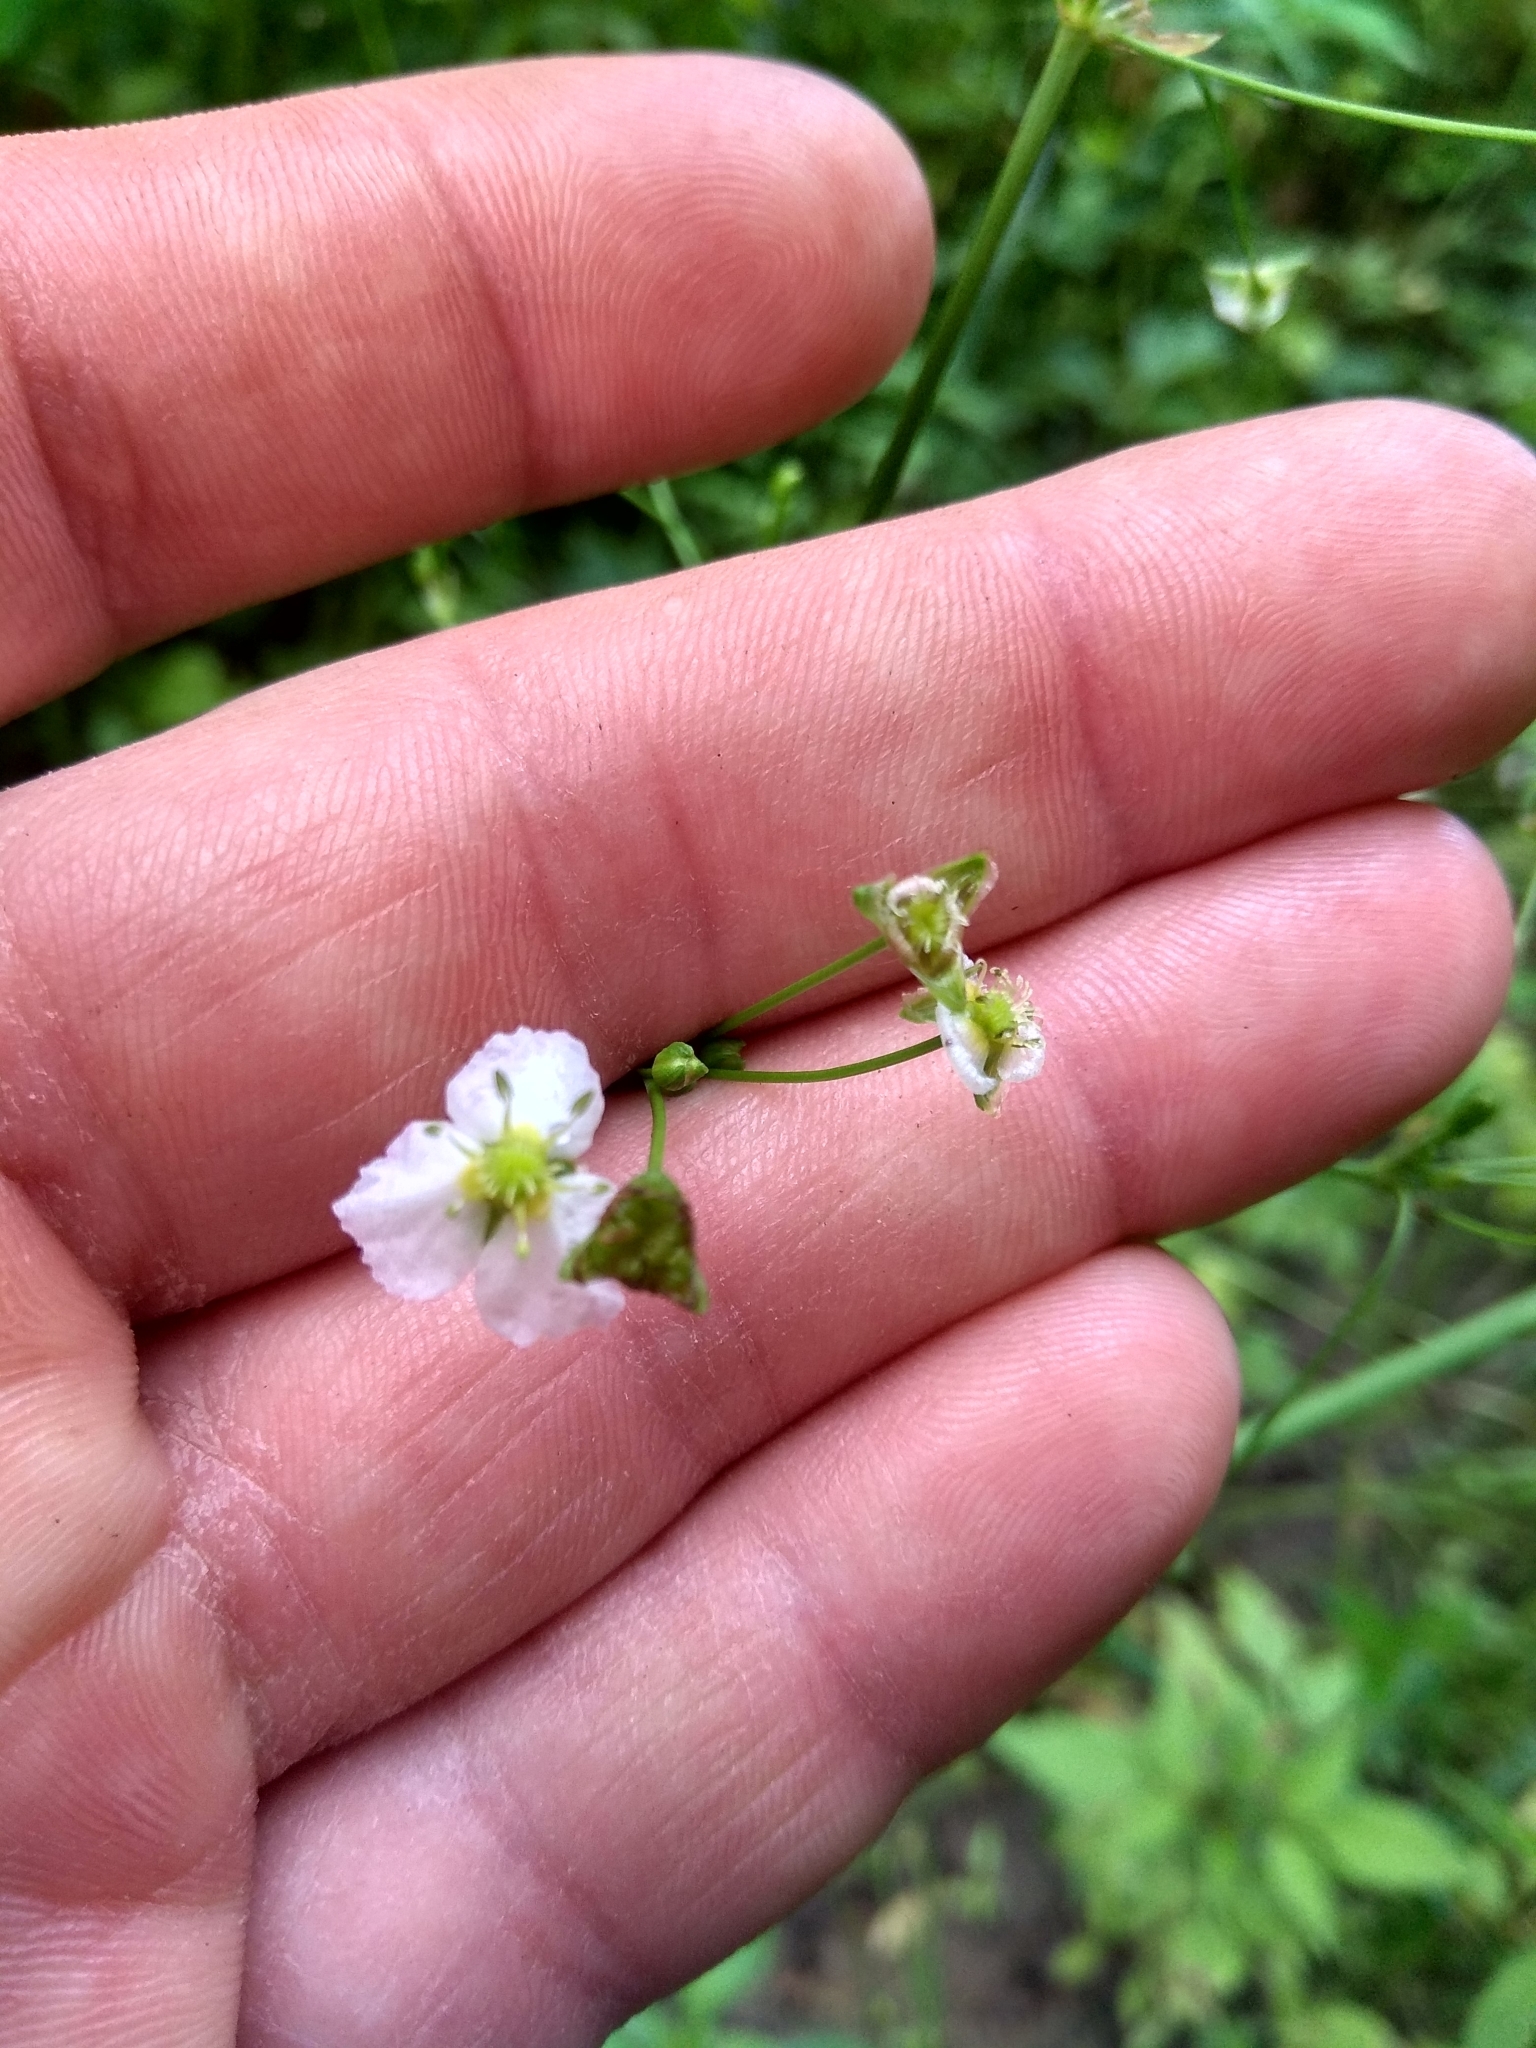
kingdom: Plantae
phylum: Tracheophyta
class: Liliopsida
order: Alismatales
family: Alismataceae
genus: Alisma
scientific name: Alisma plantago-aquatica
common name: Water-plantain
